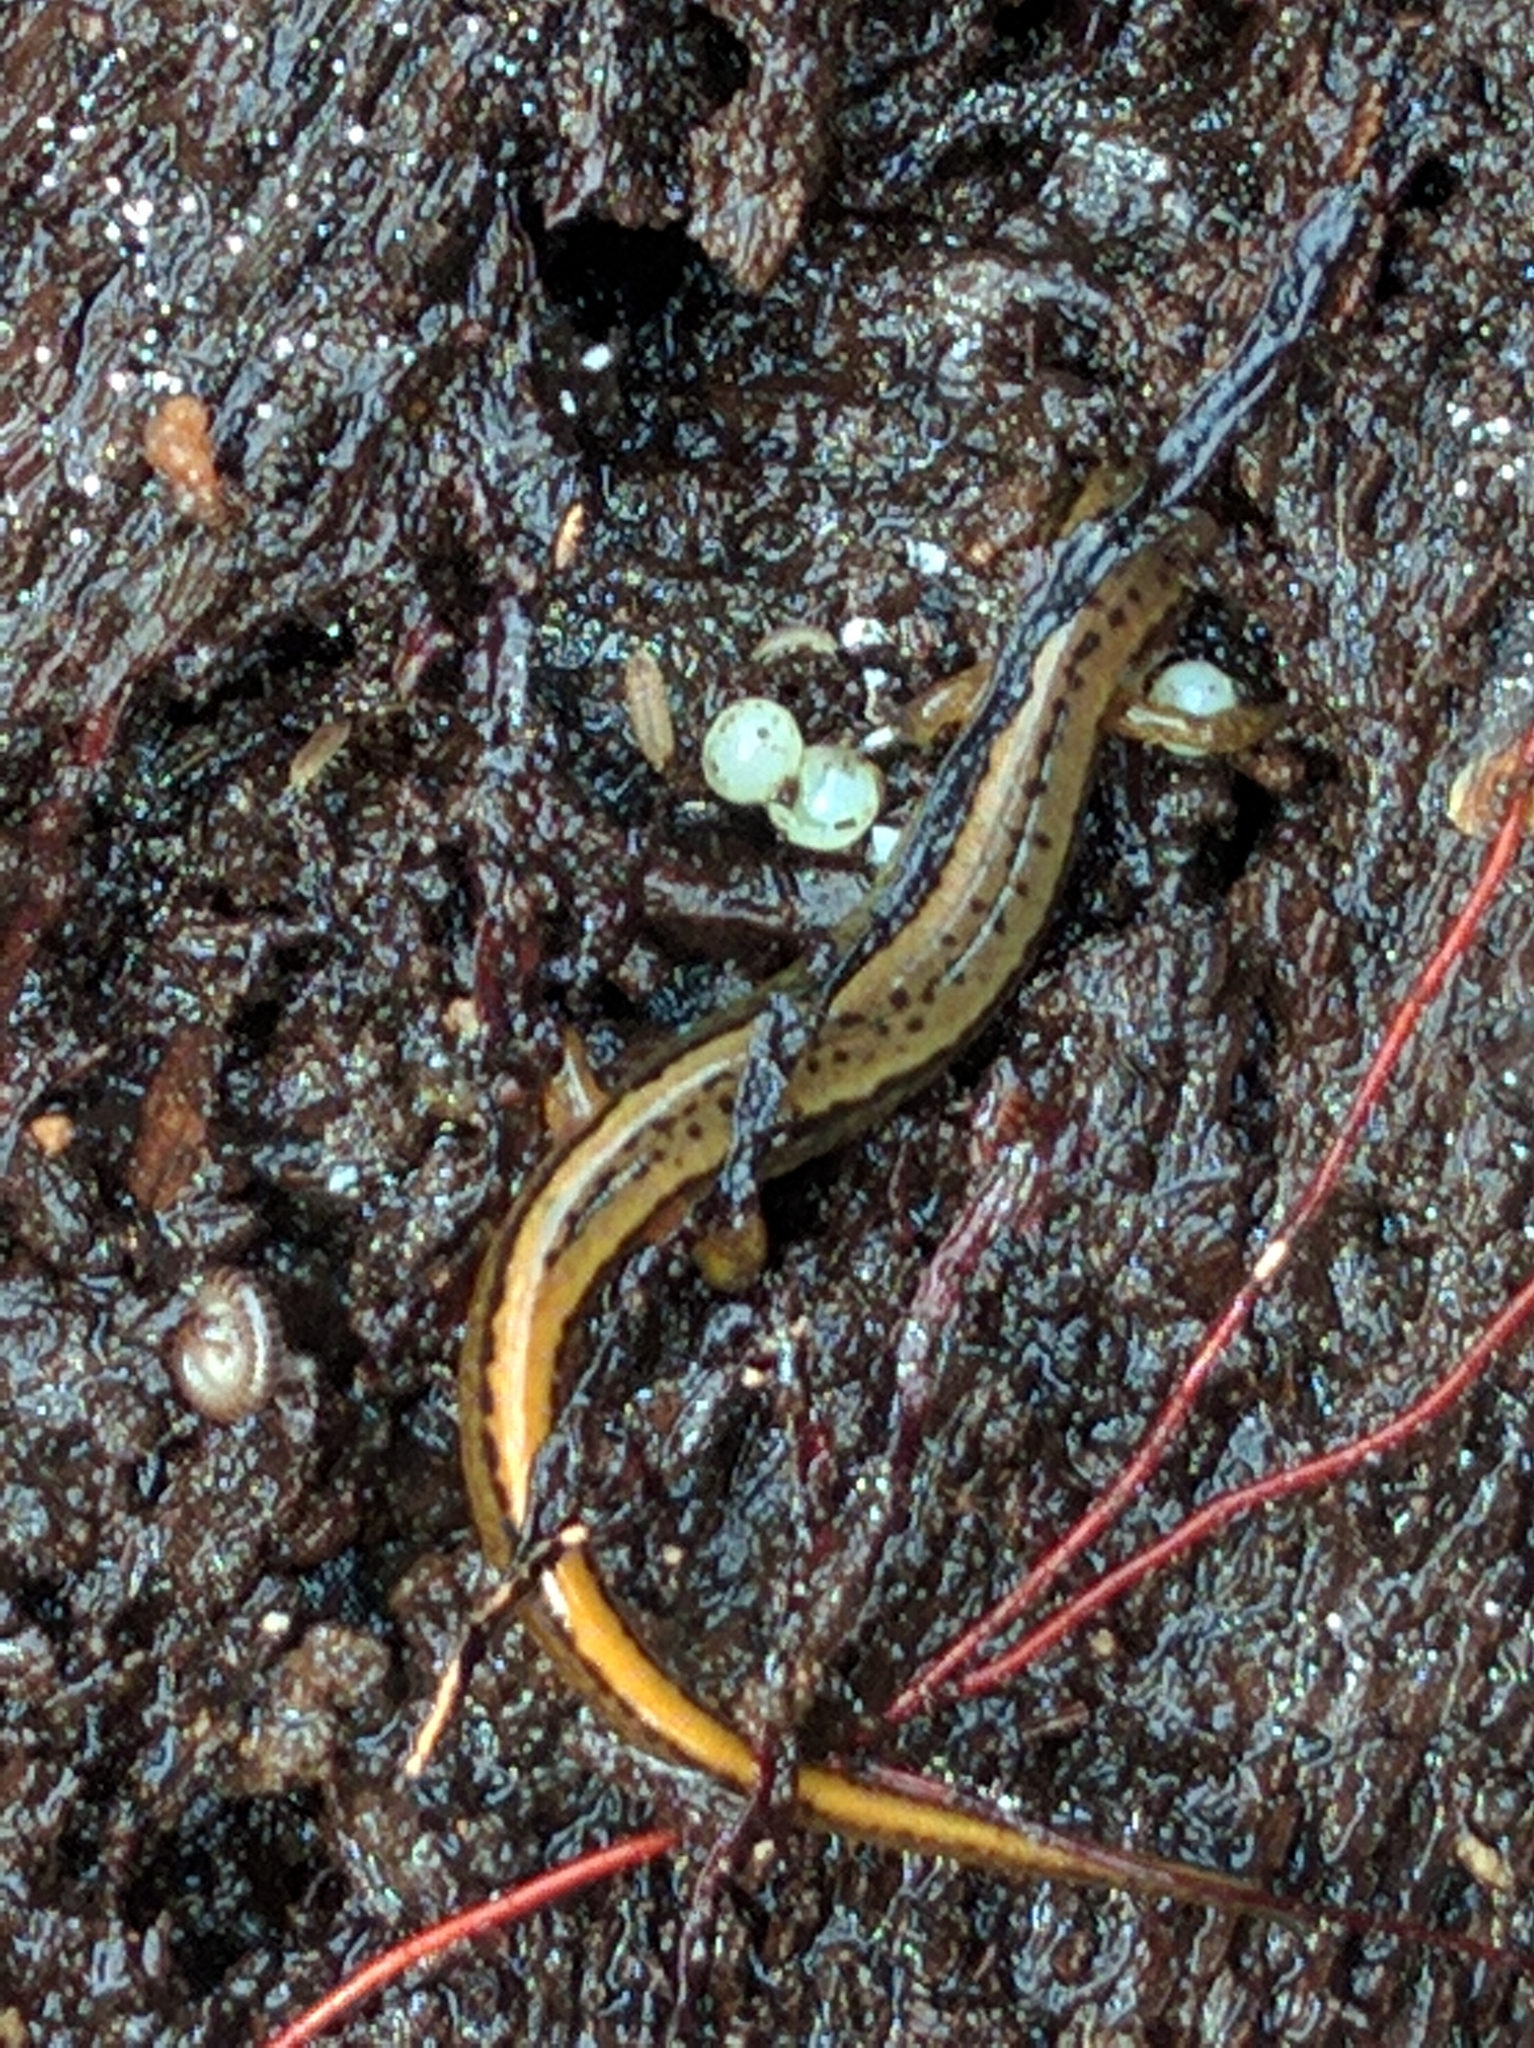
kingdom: Animalia
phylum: Chordata
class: Amphibia
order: Caudata
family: Plethodontidae
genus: Eurycea
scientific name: Eurycea bislineata
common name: Northern two-lined salamander
